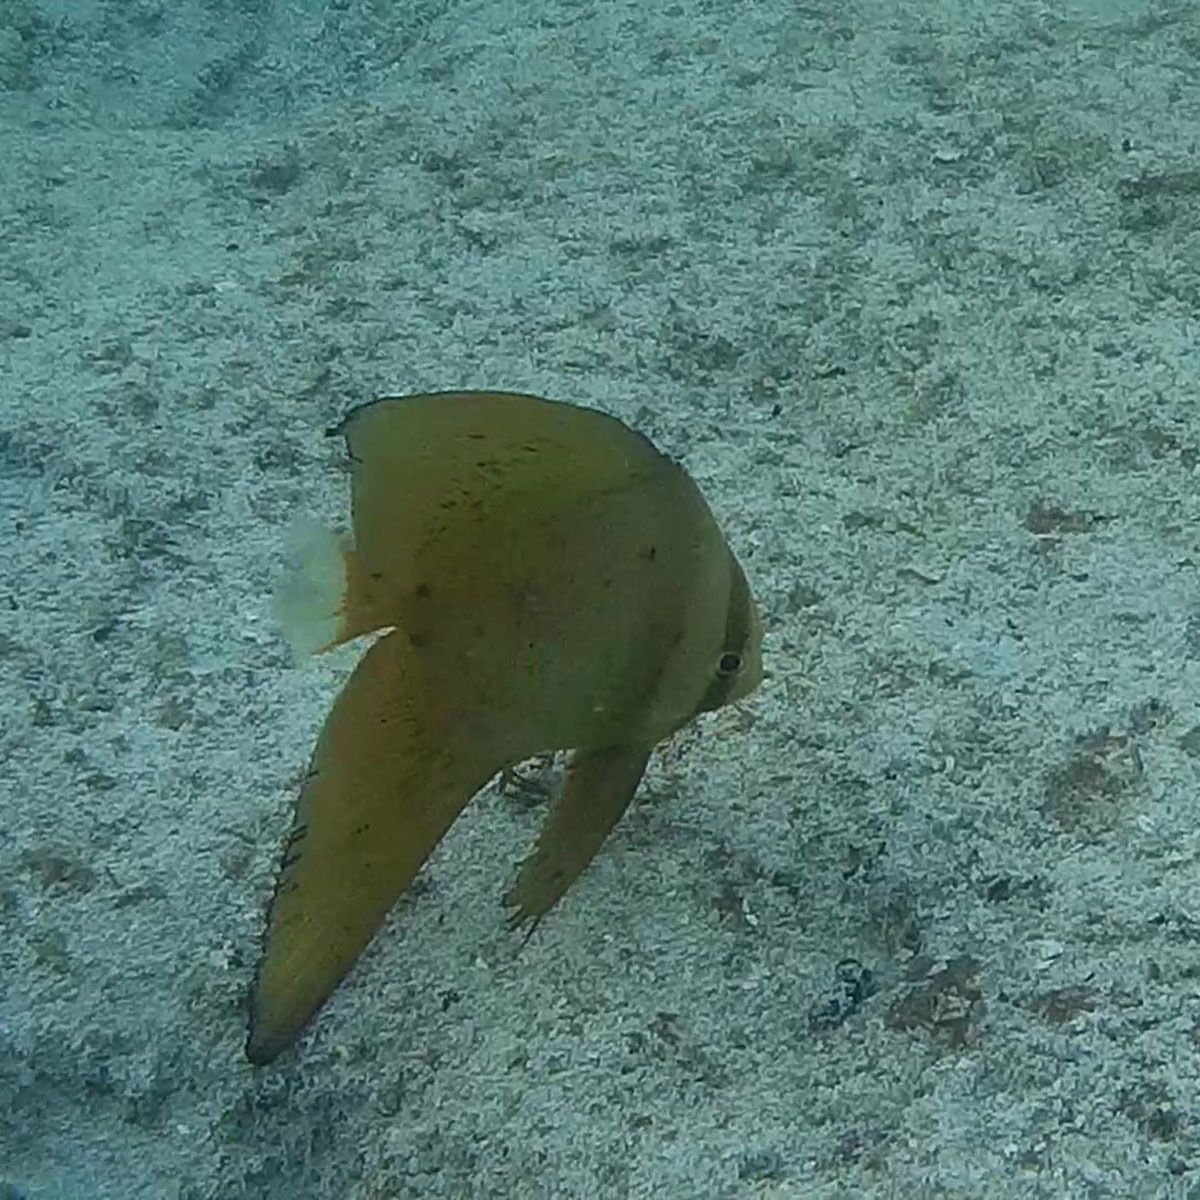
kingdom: Animalia
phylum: Chordata
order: Perciformes
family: Ephippidae
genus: Platax
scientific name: Platax orbicularis
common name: Batfish
